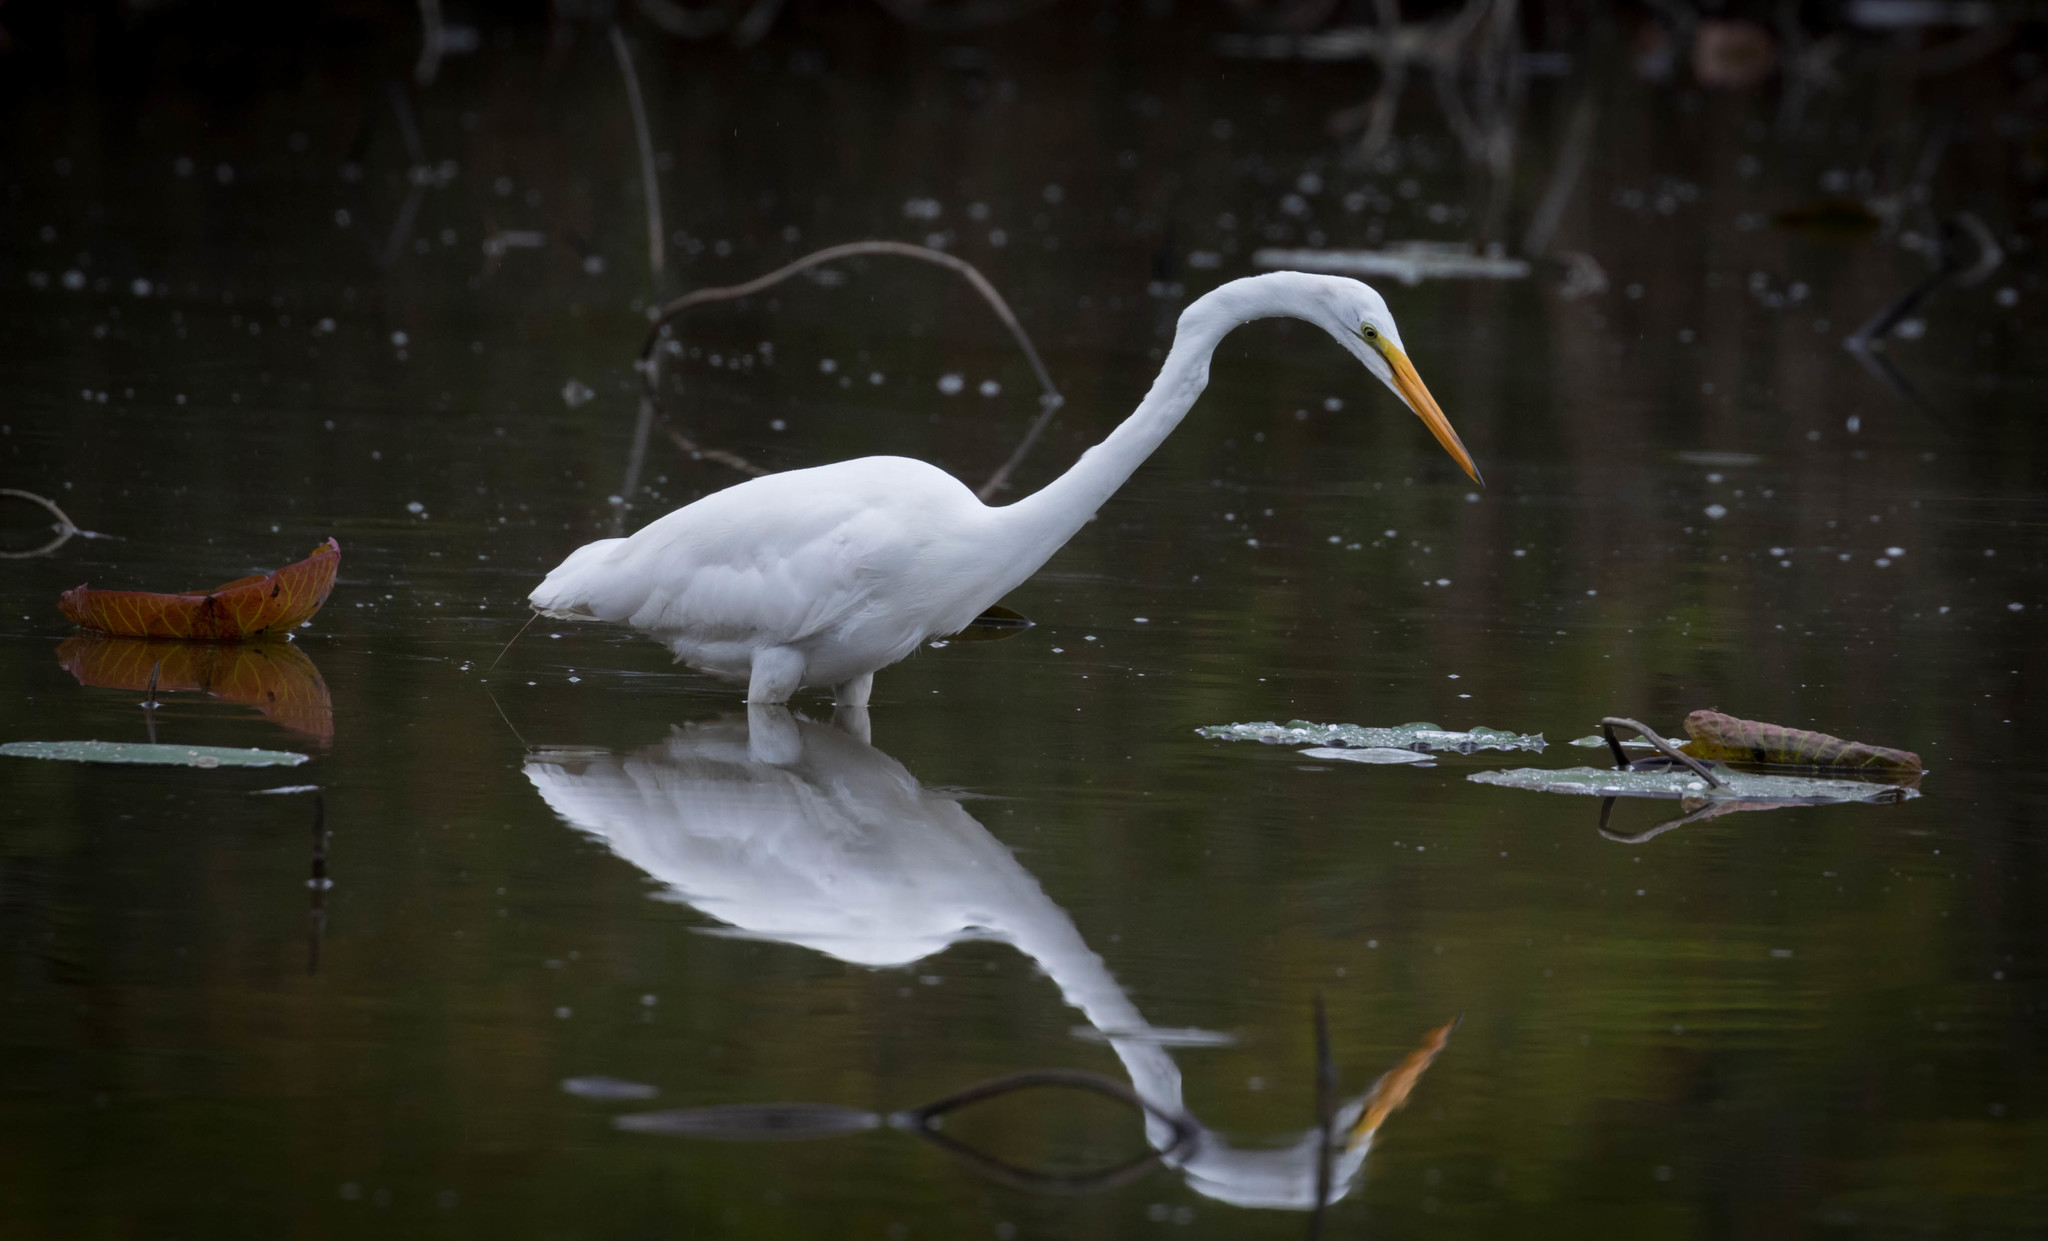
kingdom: Animalia
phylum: Chordata
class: Aves
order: Pelecaniformes
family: Ardeidae
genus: Ardea
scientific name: Ardea alba
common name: Great egret
